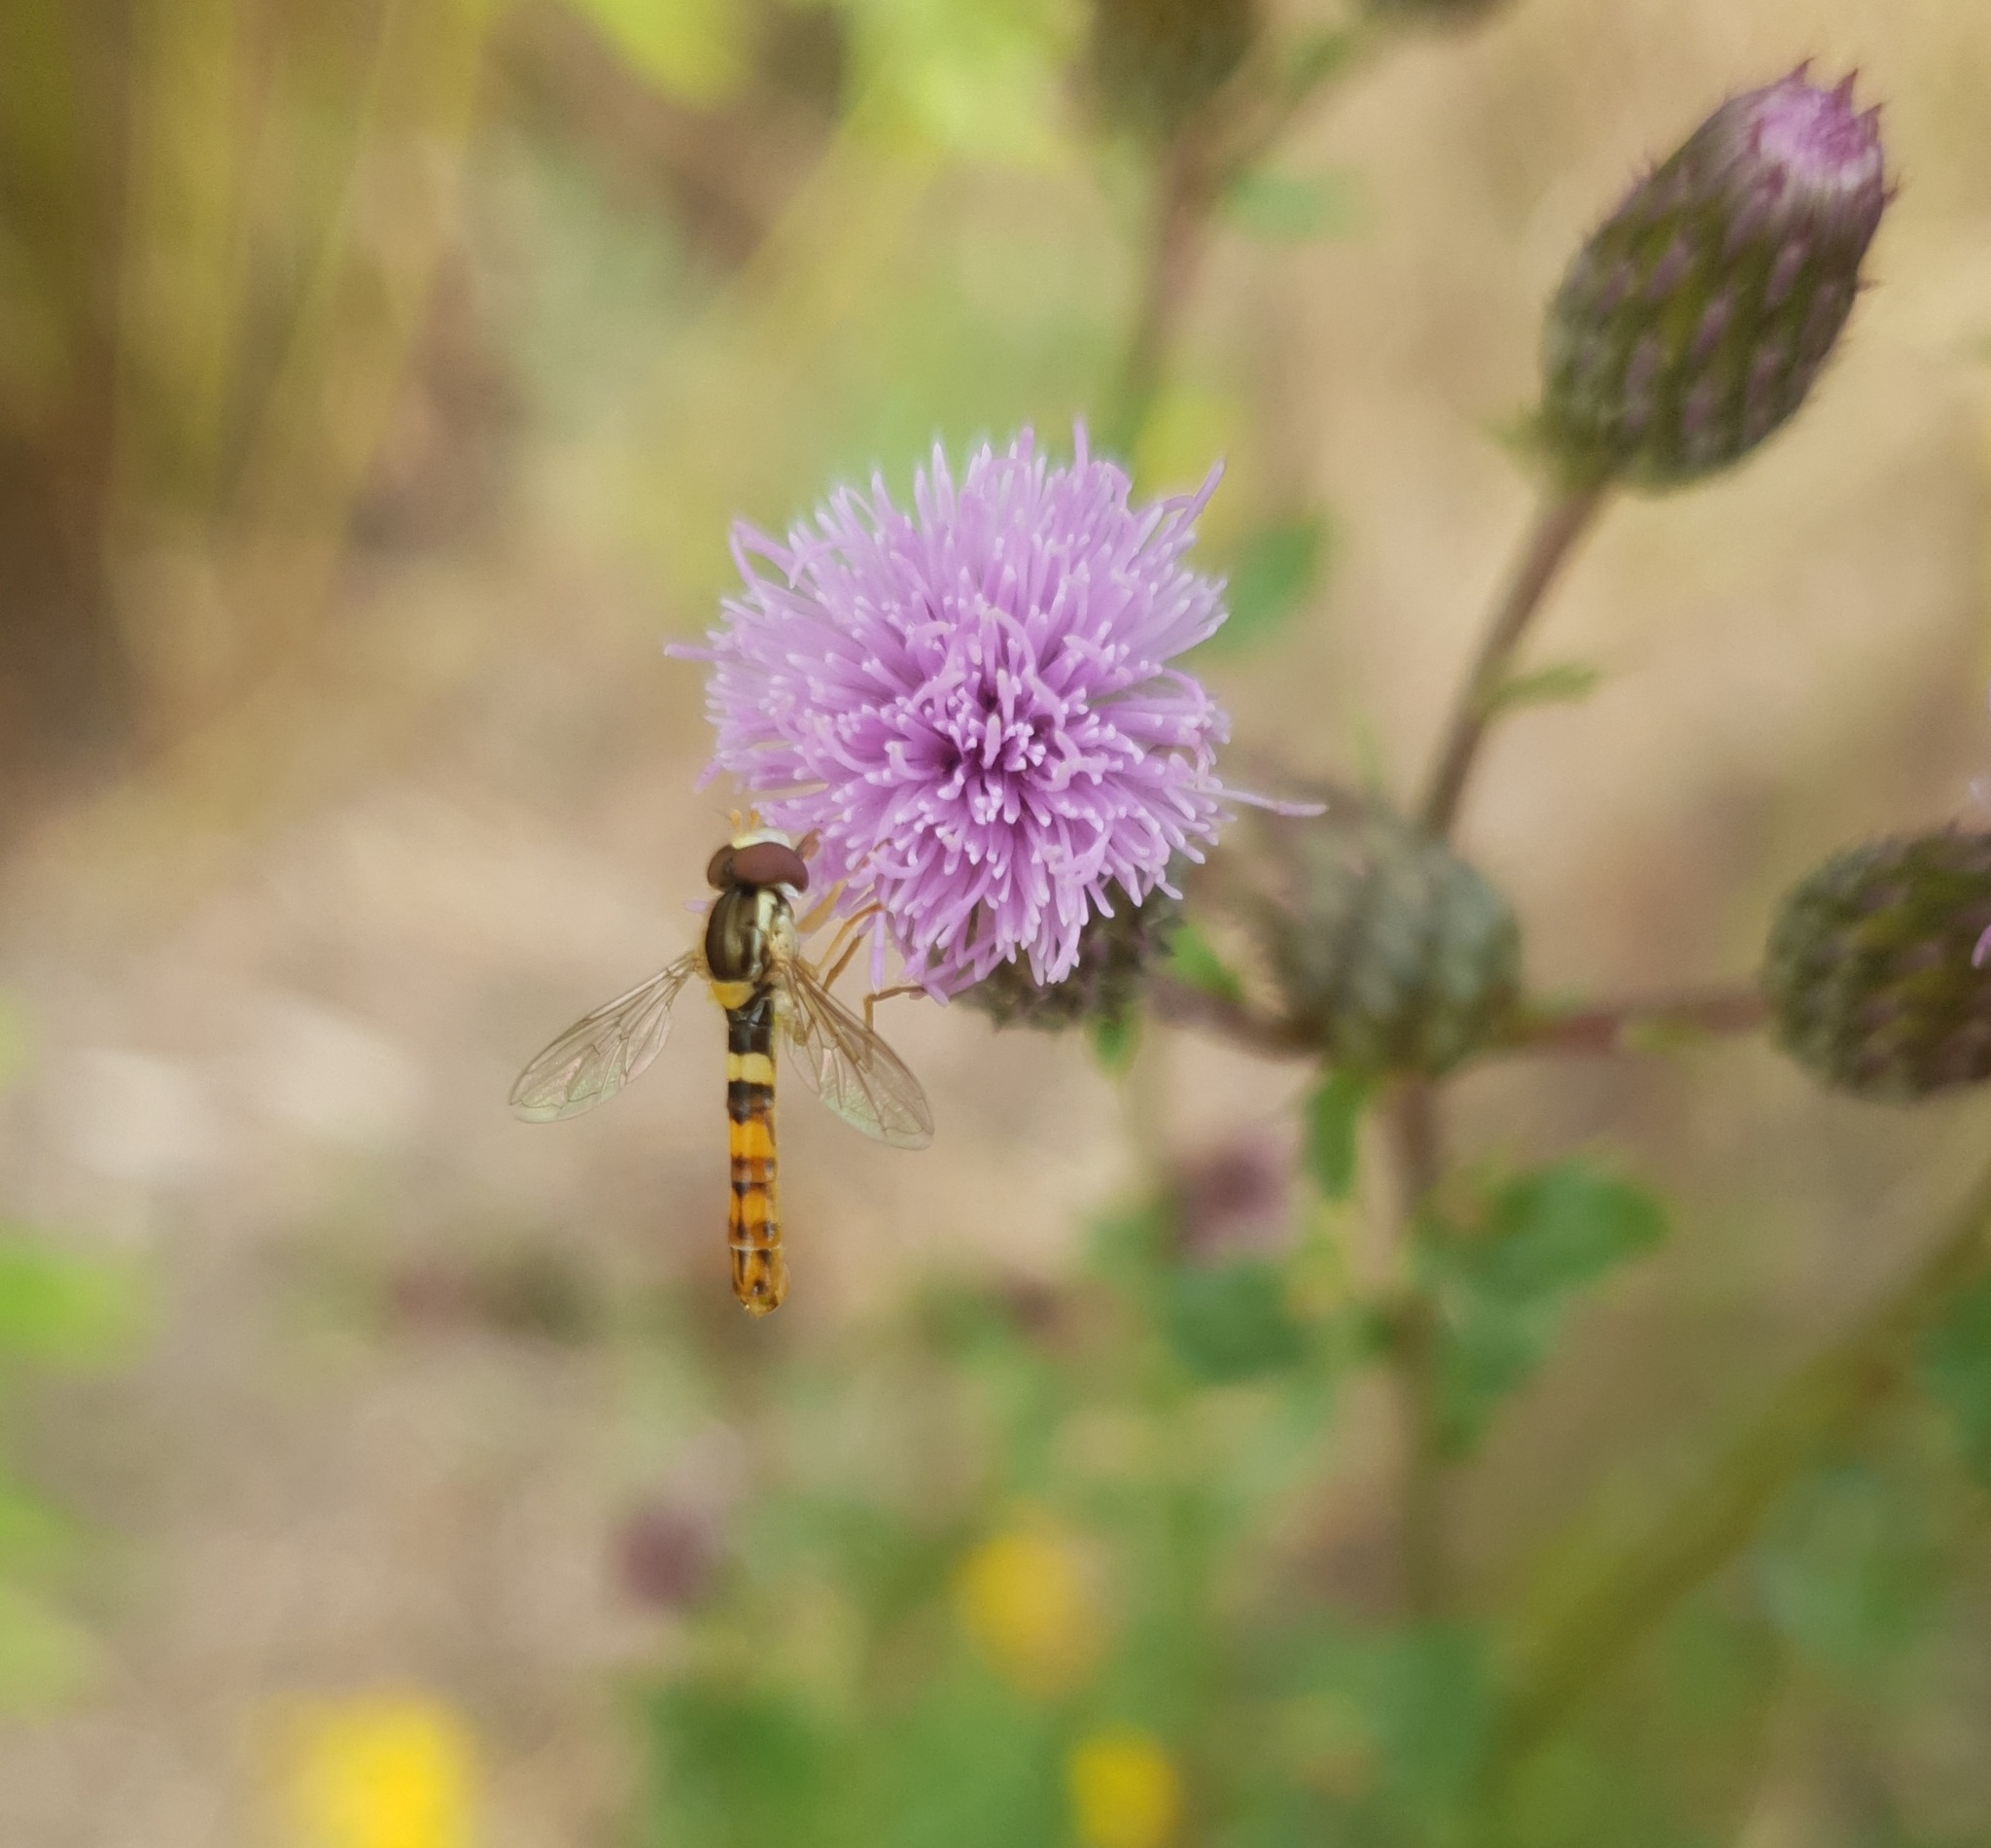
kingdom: Animalia
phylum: Arthropoda
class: Insecta
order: Diptera
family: Syrphidae
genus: Sphaerophoria
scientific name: Sphaerophoria scripta
